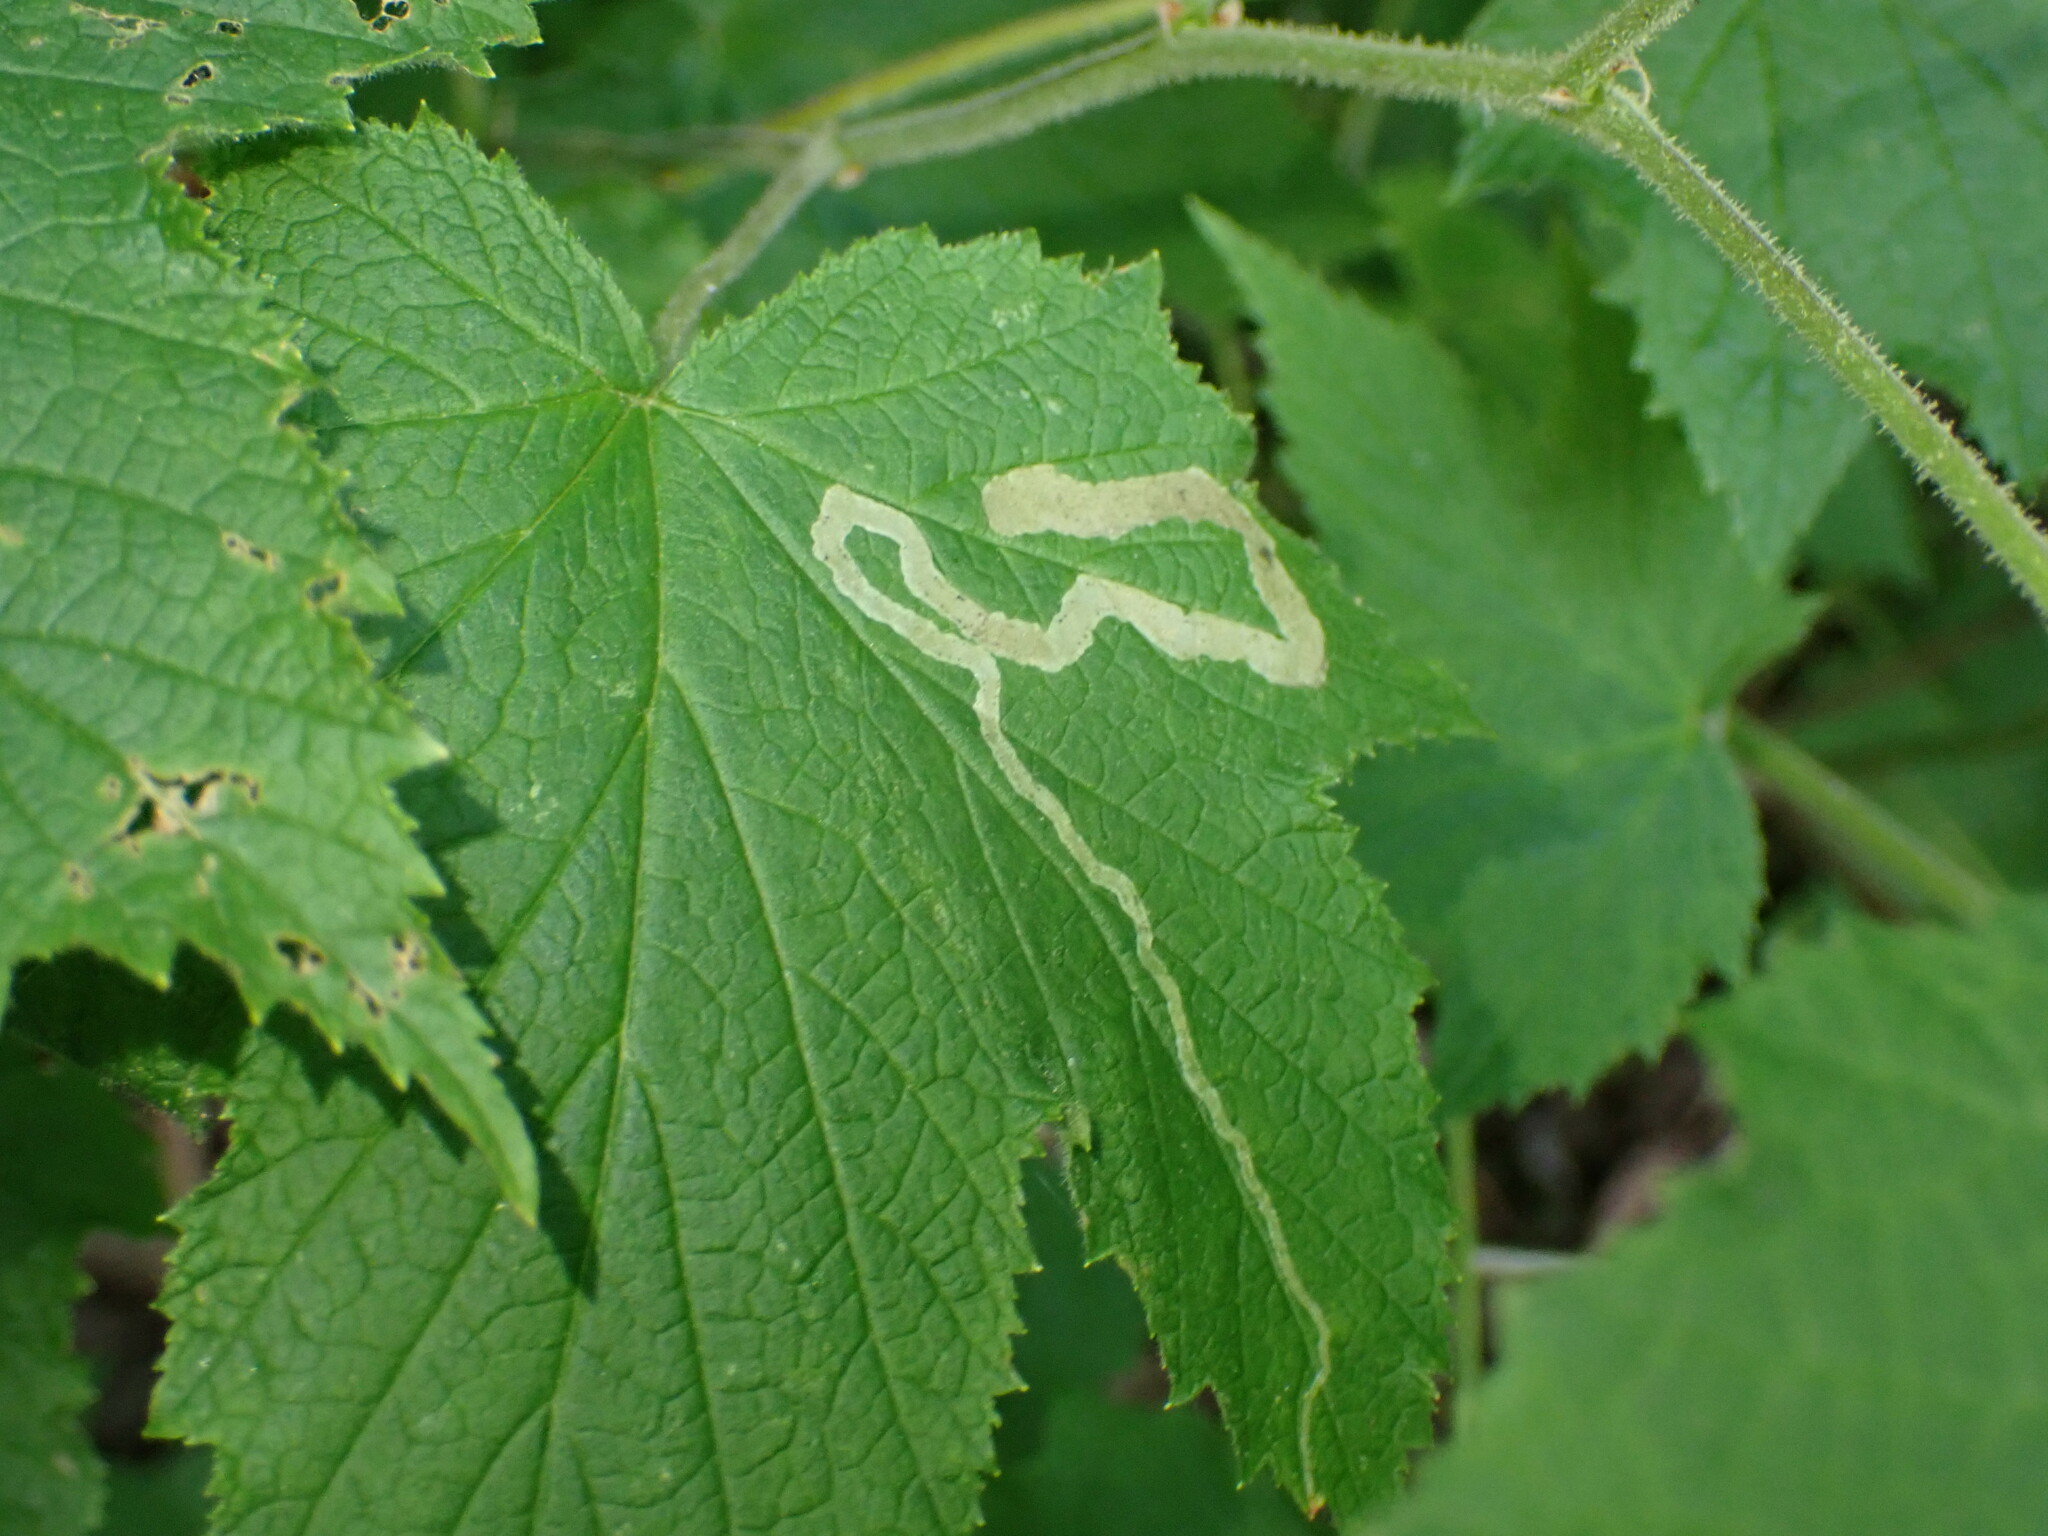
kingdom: Animalia
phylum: Arthropoda
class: Insecta
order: Diptera
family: Agromyzidae
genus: Agromyza
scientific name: Agromyza vockerothi
